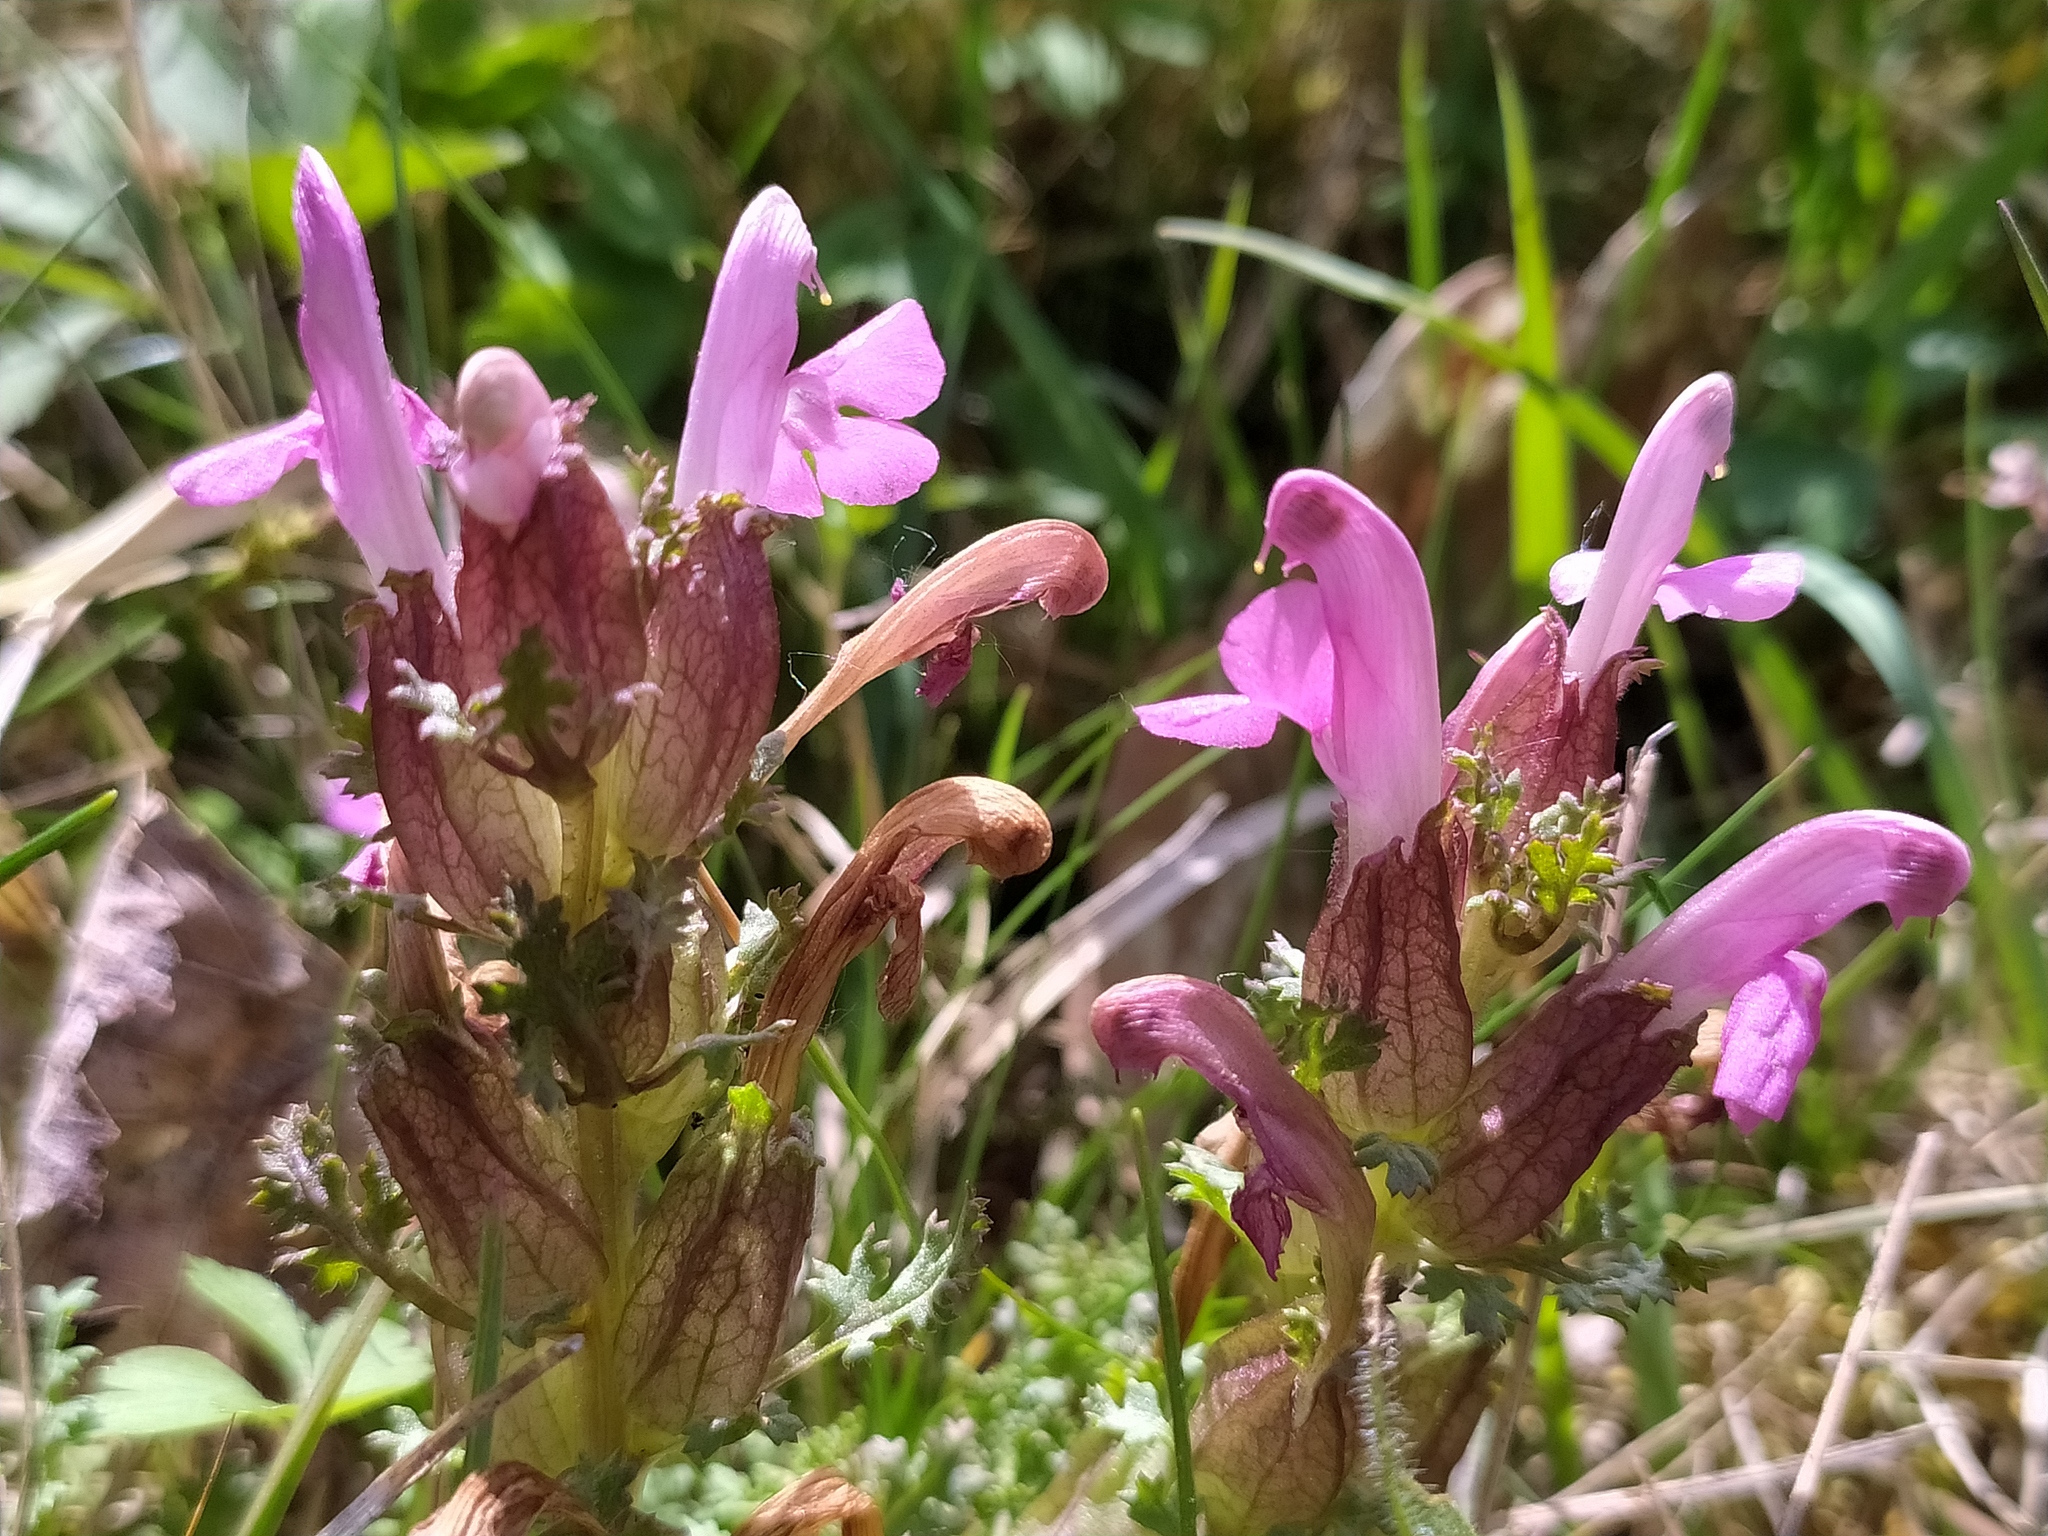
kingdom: Plantae
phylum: Tracheophyta
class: Magnoliopsida
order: Lamiales
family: Orobanchaceae
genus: Pedicularis
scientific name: Pedicularis sylvatica
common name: Lousewort
